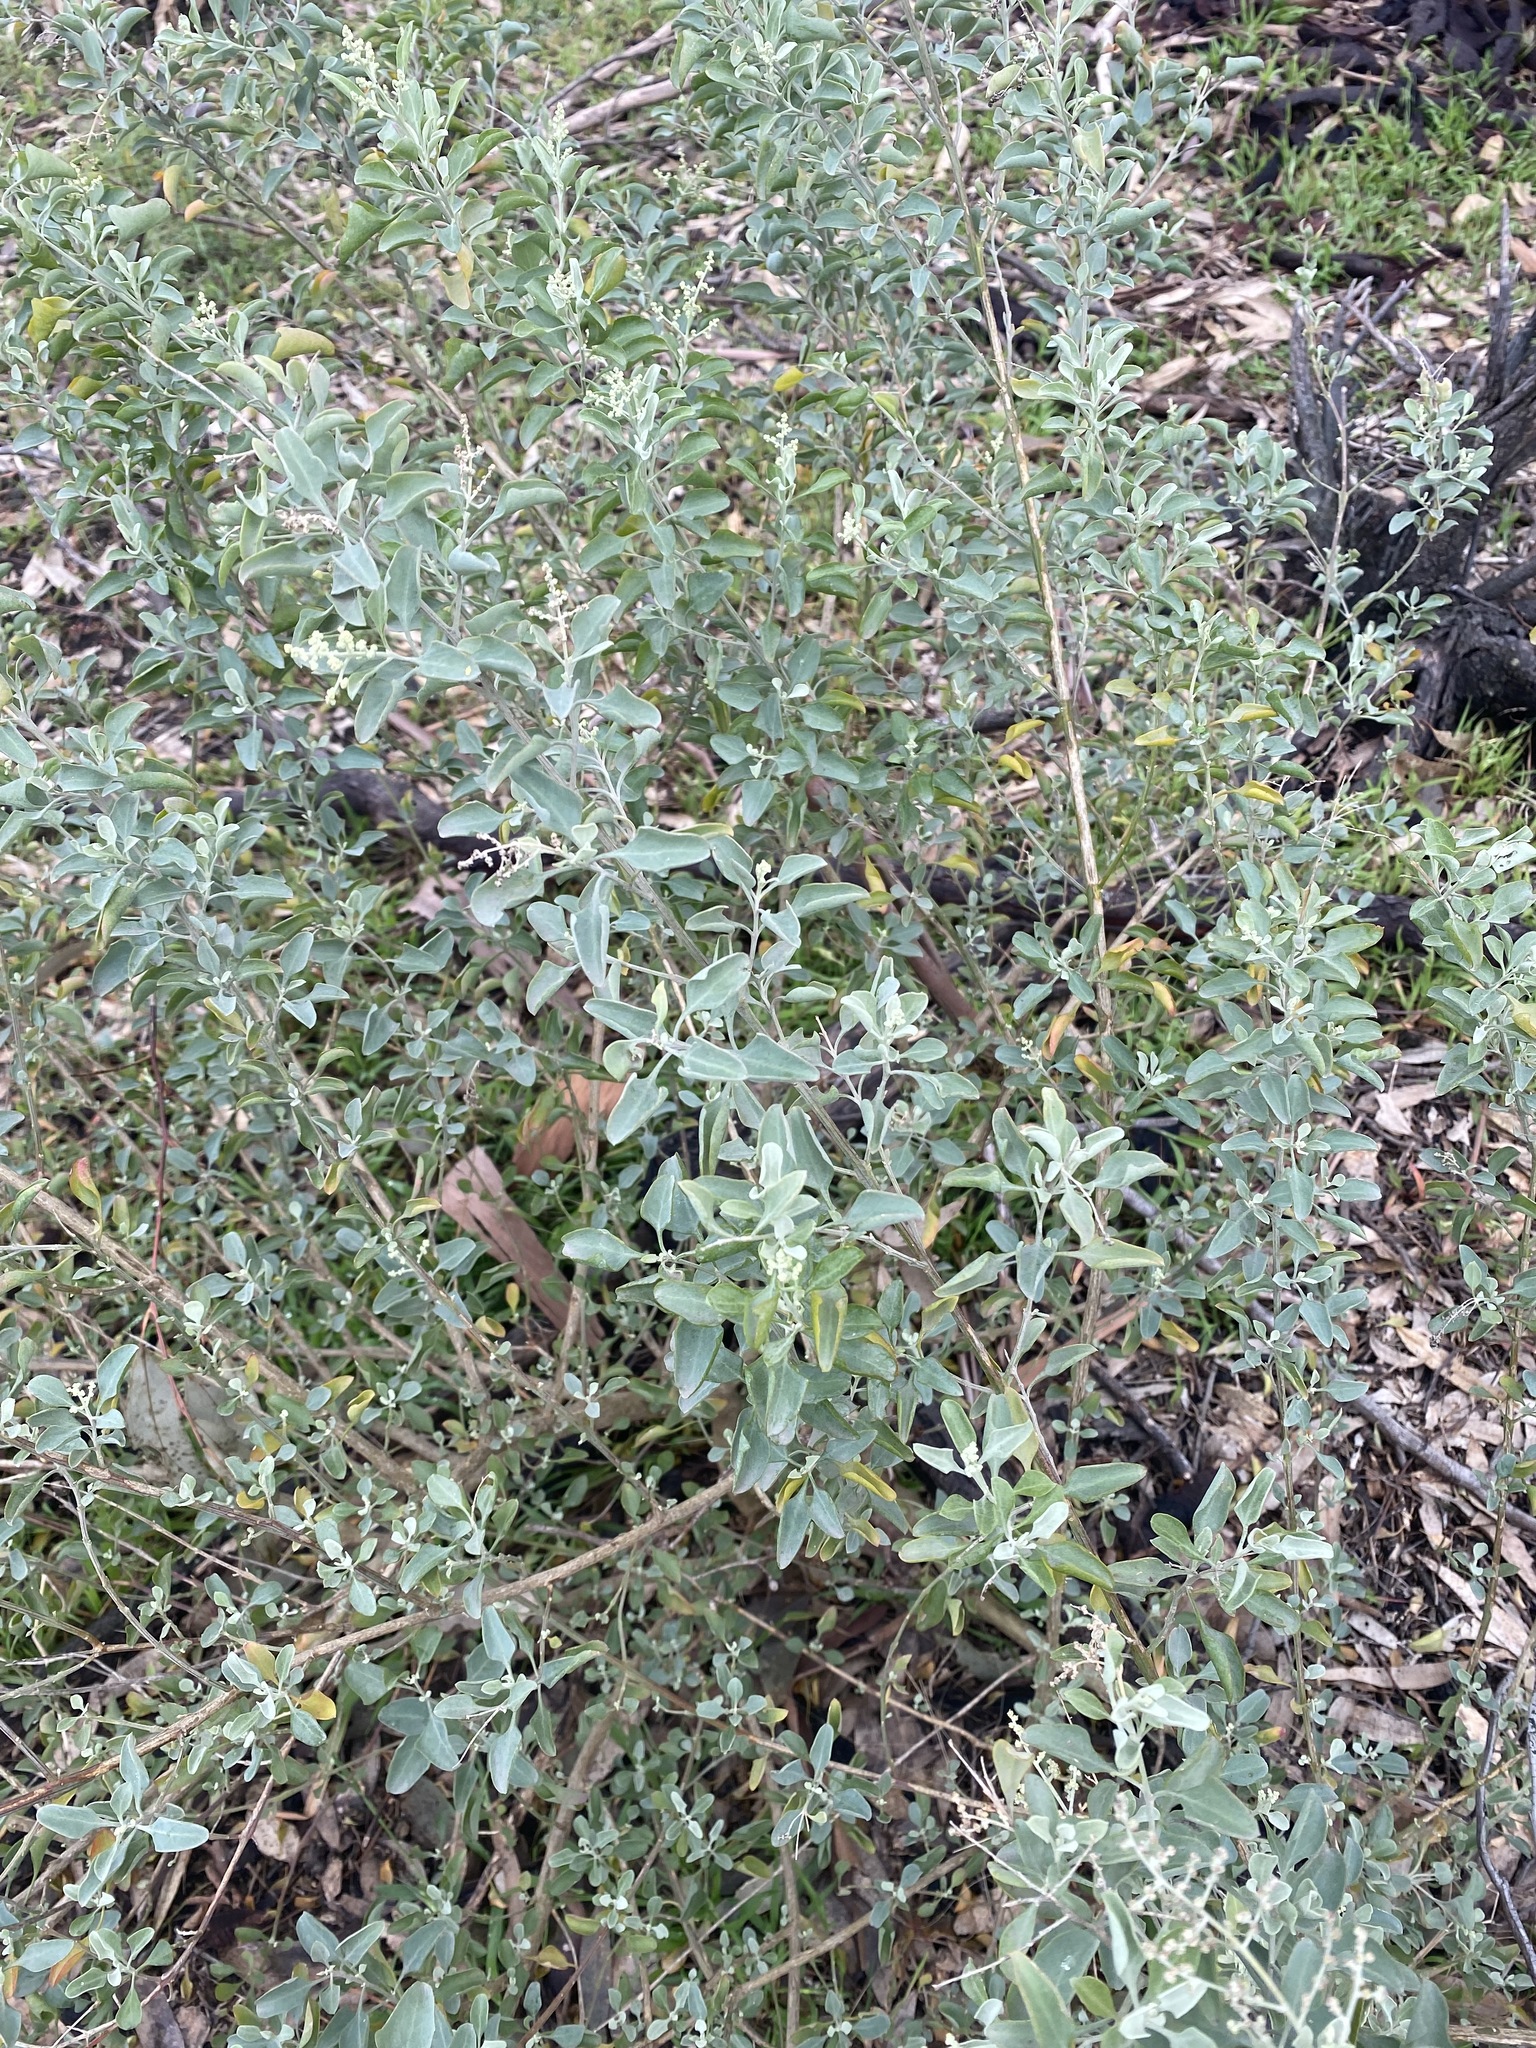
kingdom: Plantae
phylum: Tracheophyta
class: Magnoliopsida
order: Caryophyllales
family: Amaranthaceae
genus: Chenopodium
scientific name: Chenopodium parabolicum
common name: Old-man-saltbush
